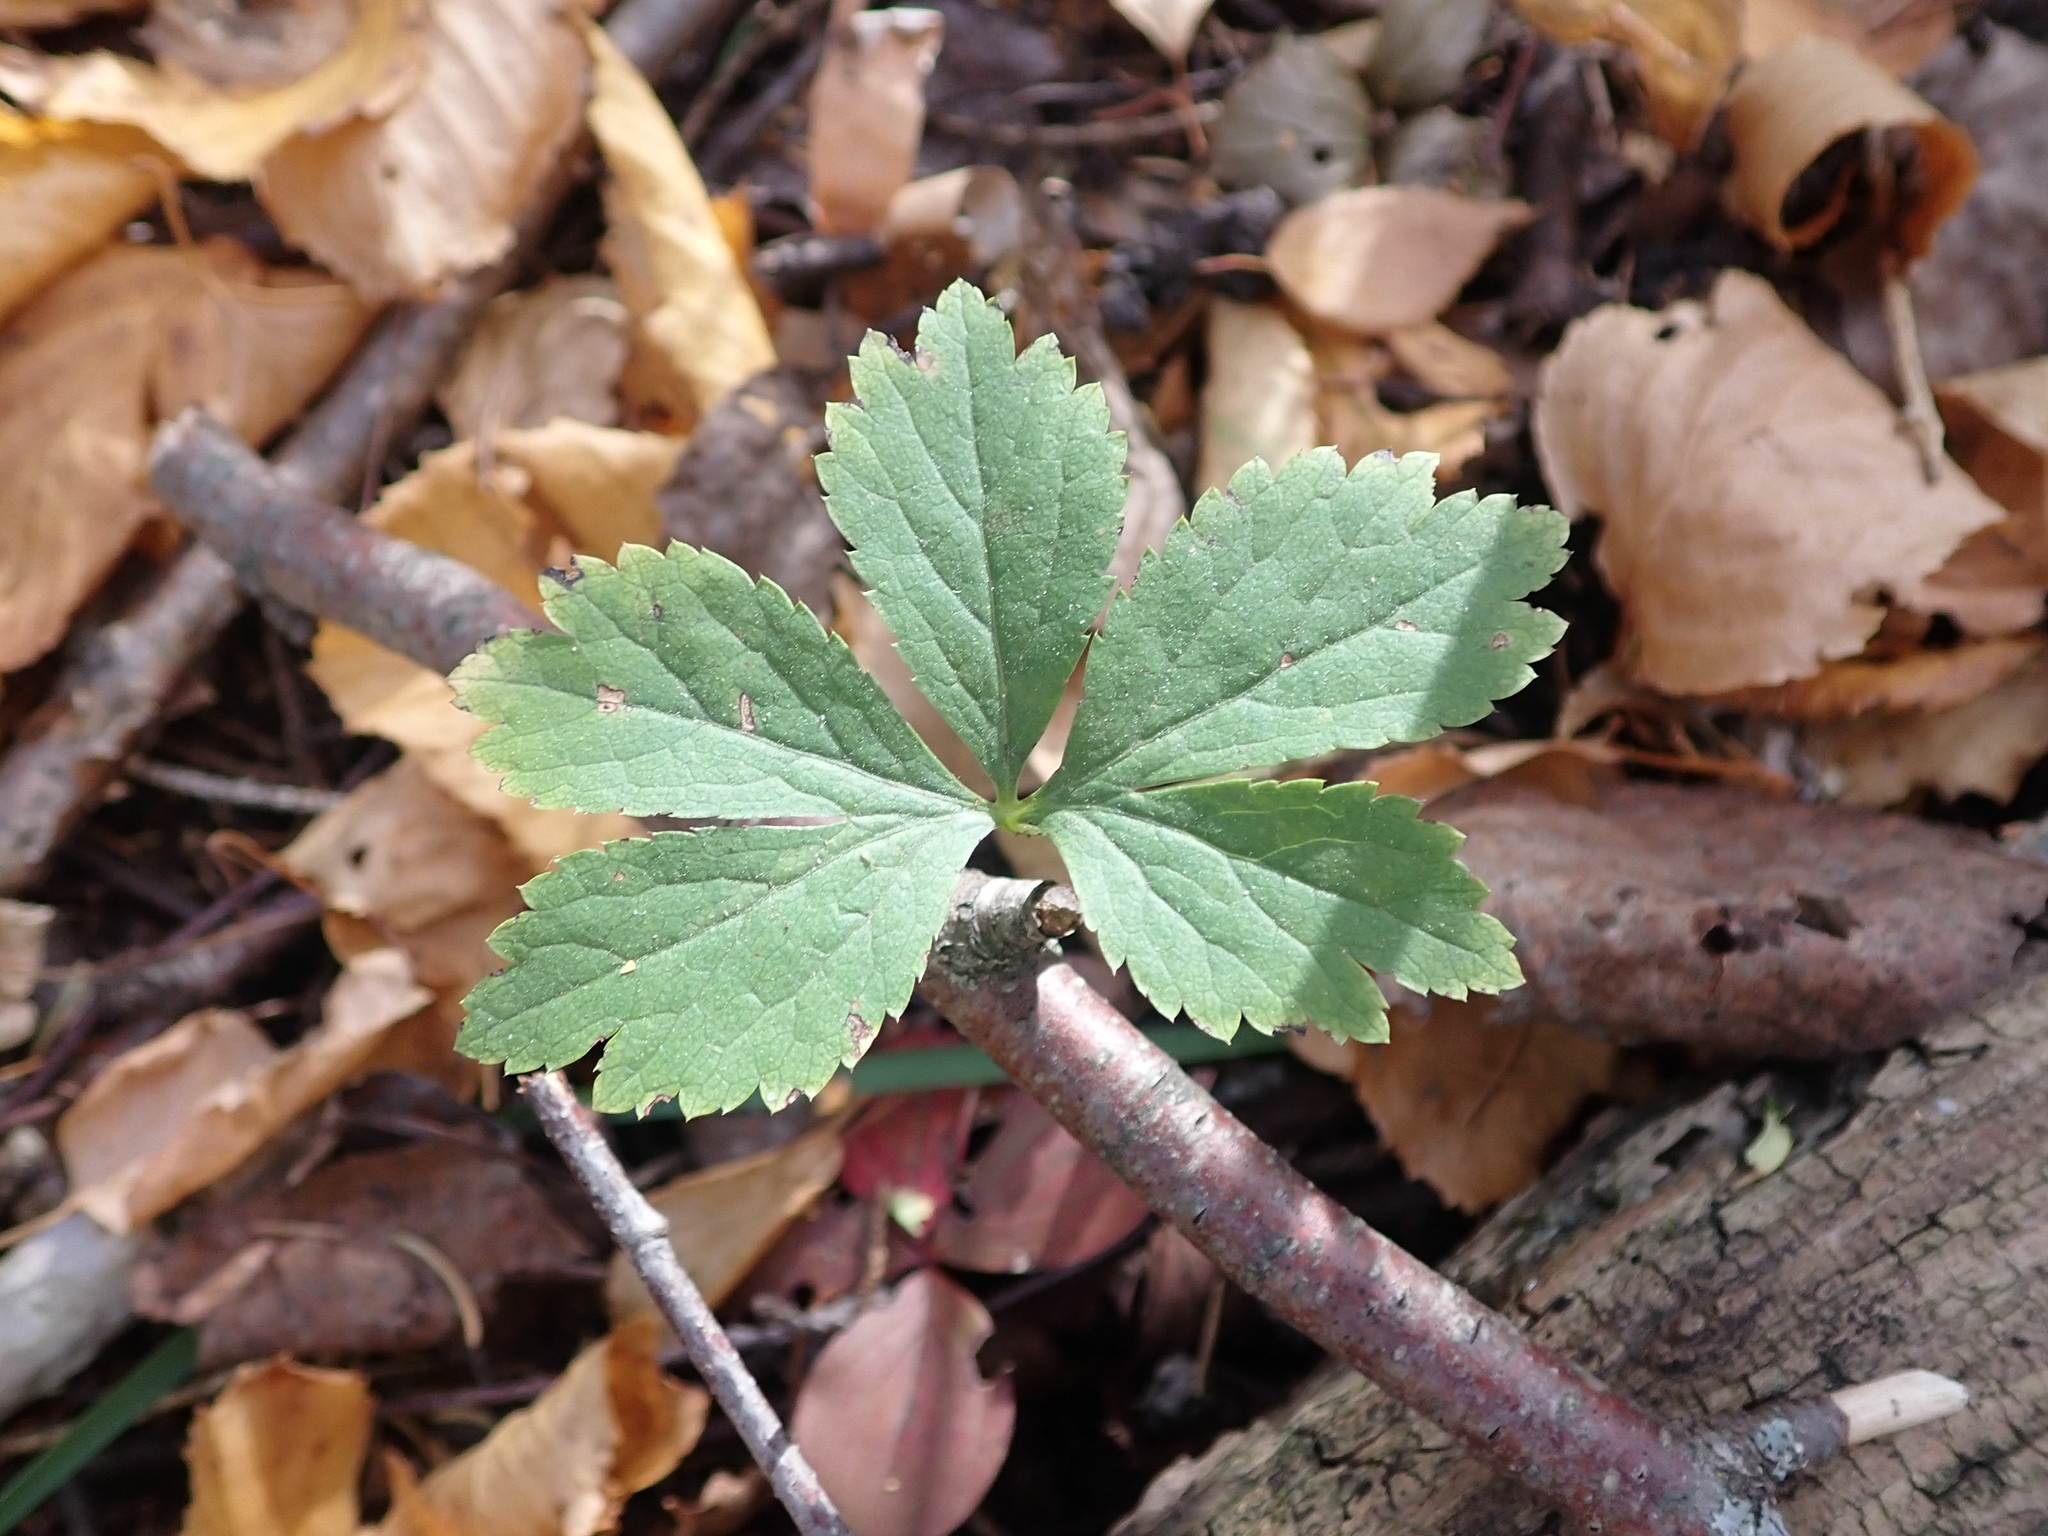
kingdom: Plantae
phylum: Tracheophyta
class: Magnoliopsida
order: Apiales
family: Apiaceae
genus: Sanicula
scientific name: Sanicula marilandica
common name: Black snakeroot
